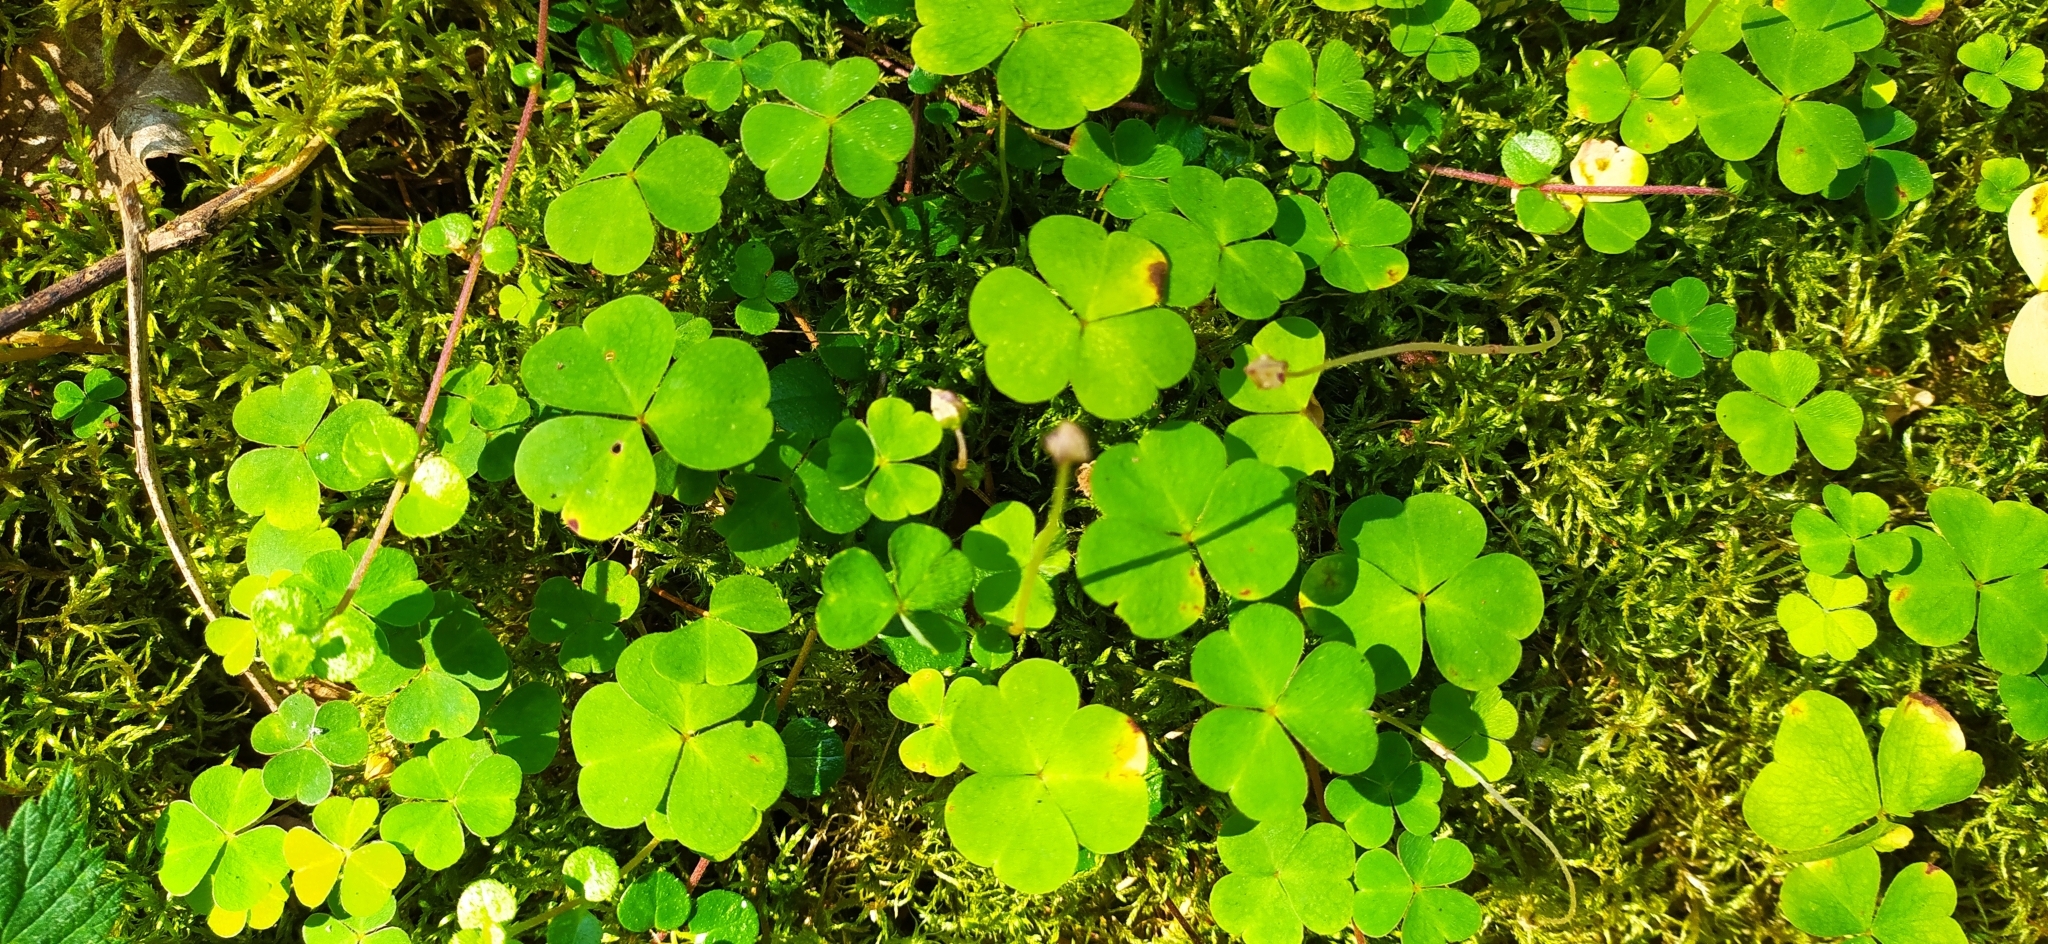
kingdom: Plantae
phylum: Tracheophyta
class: Magnoliopsida
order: Oxalidales
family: Oxalidaceae
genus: Oxalis
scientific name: Oxalis acetosella
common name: Wood-sorrel
